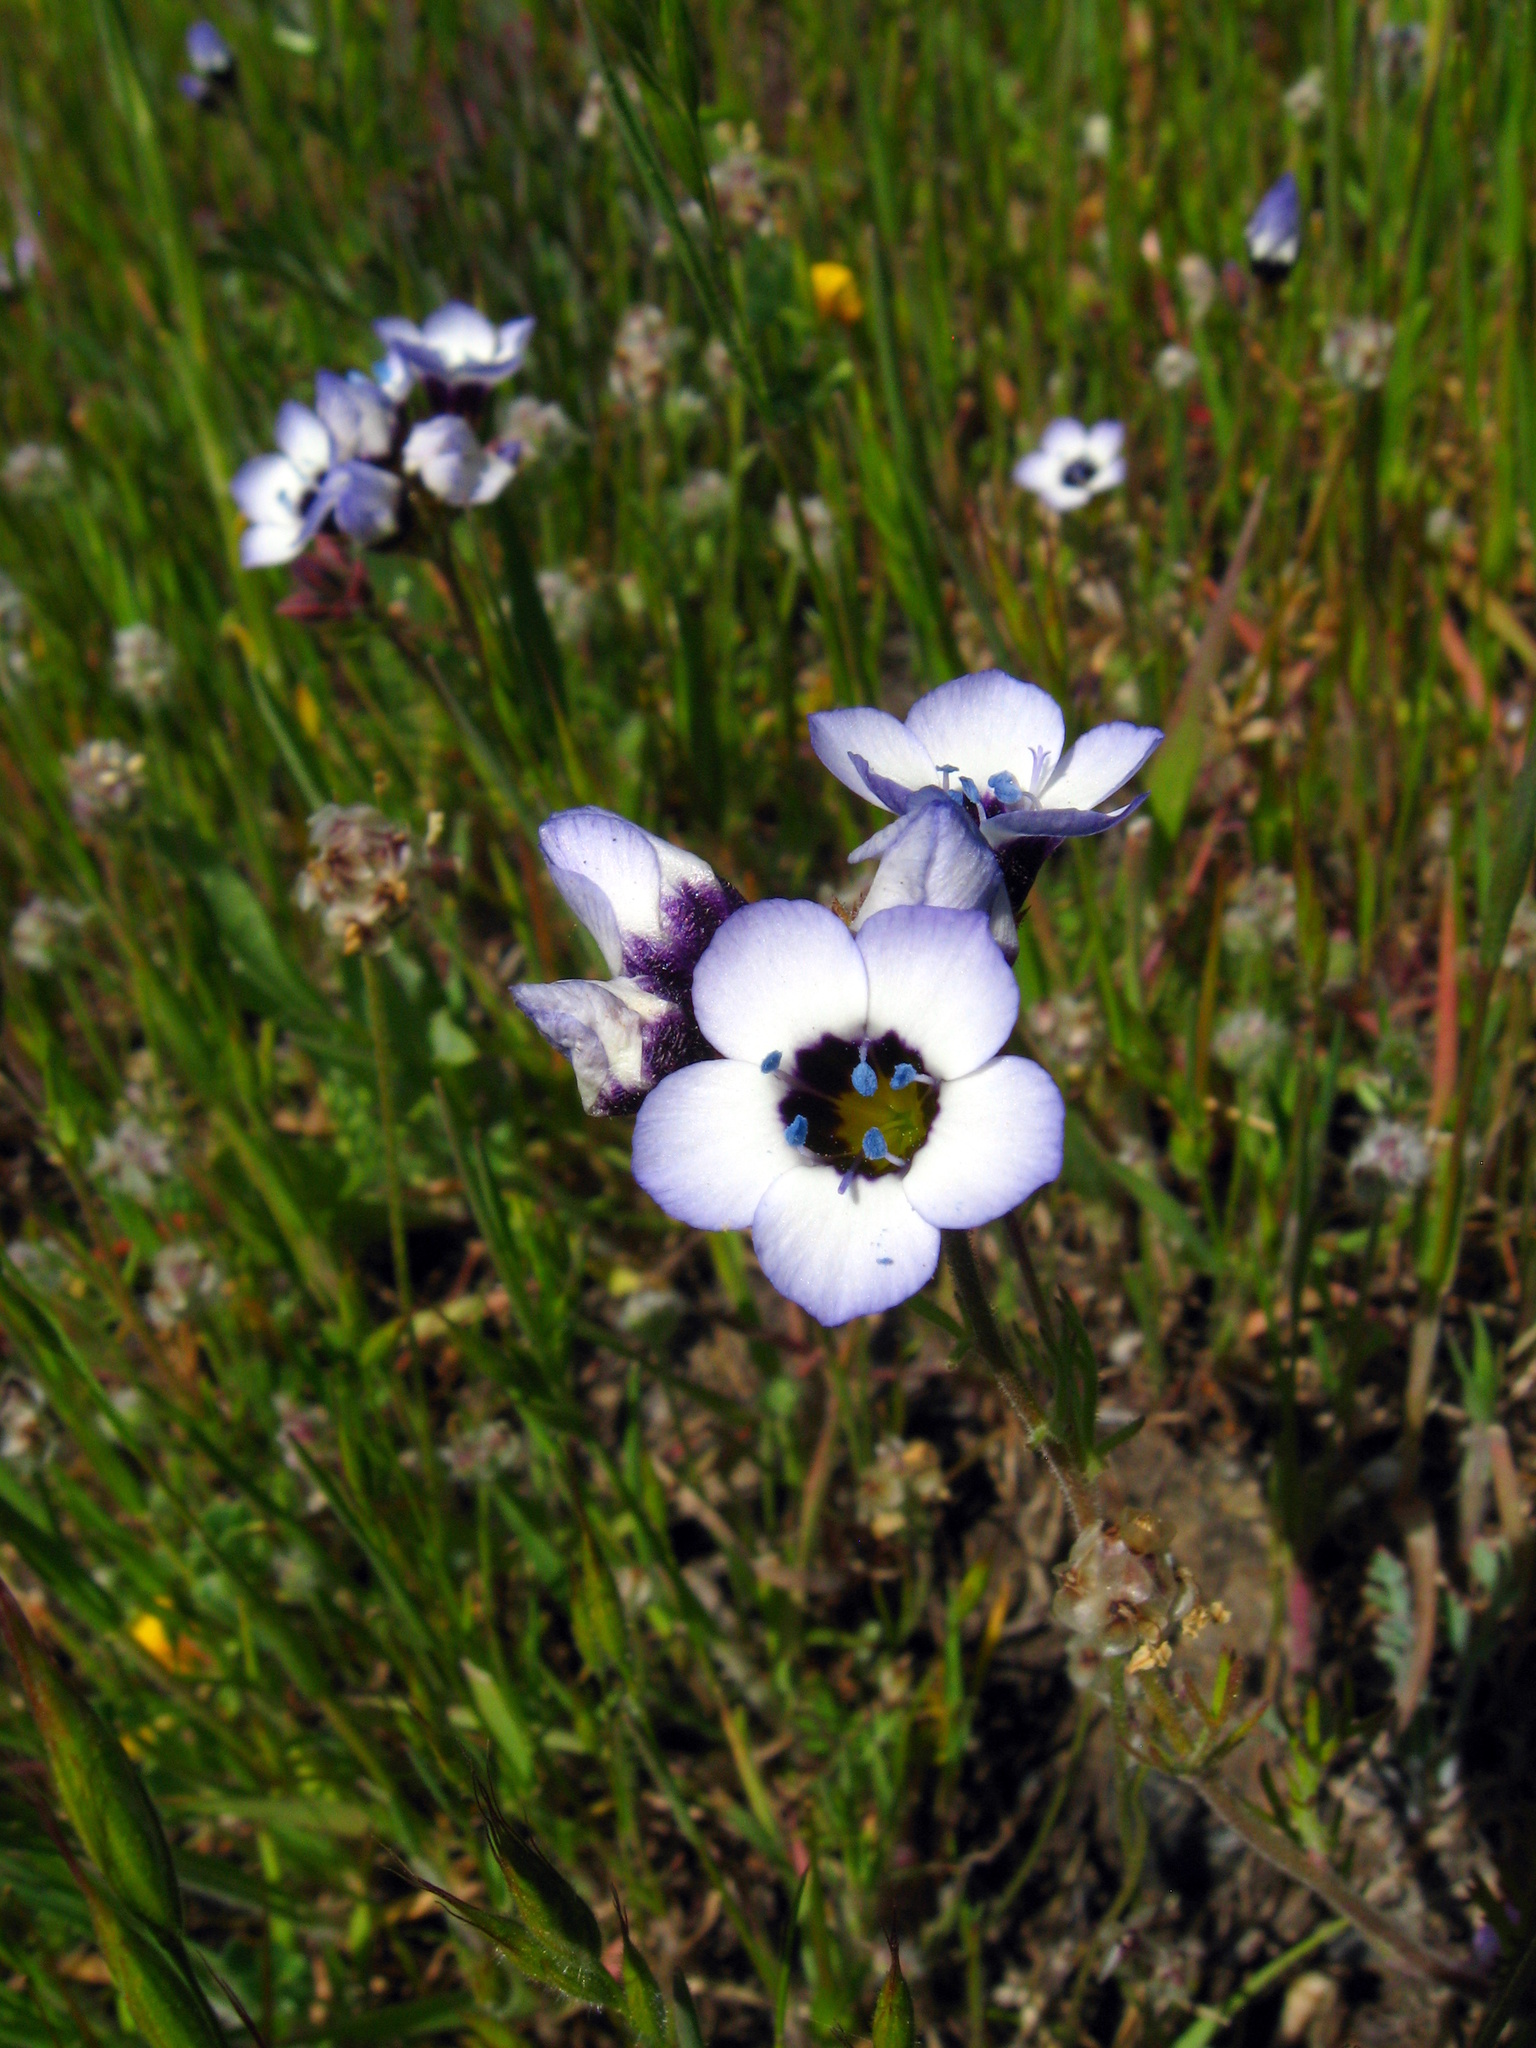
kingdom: Plantae
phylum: Tracheophyta
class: Magnoliopsida
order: Ericales
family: Polemoniaceae
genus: Gilia
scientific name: Gilia tricolor
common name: Bird's-eyes
